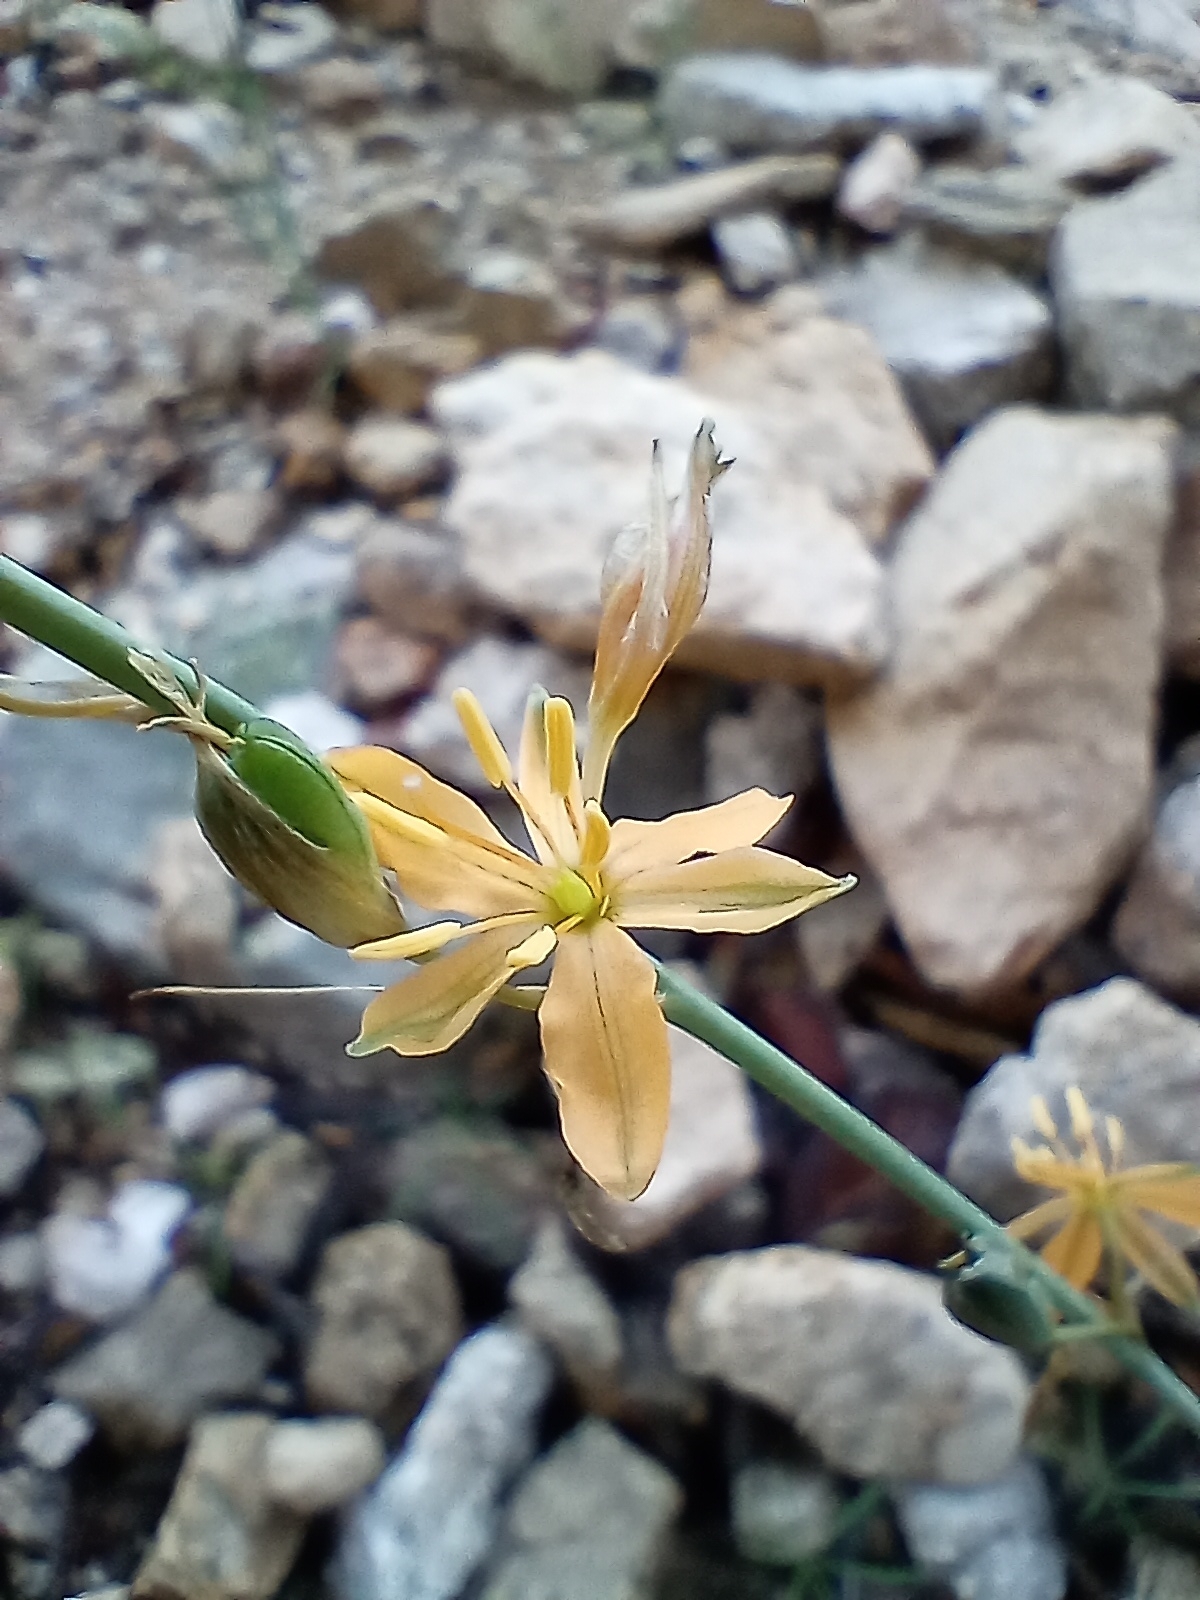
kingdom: Plantae
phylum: Tracheophyta
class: Liliopsida
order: Asparagales
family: Asparagaceae
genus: Echeandia
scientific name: Echeandia flavescens
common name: Amberlily
